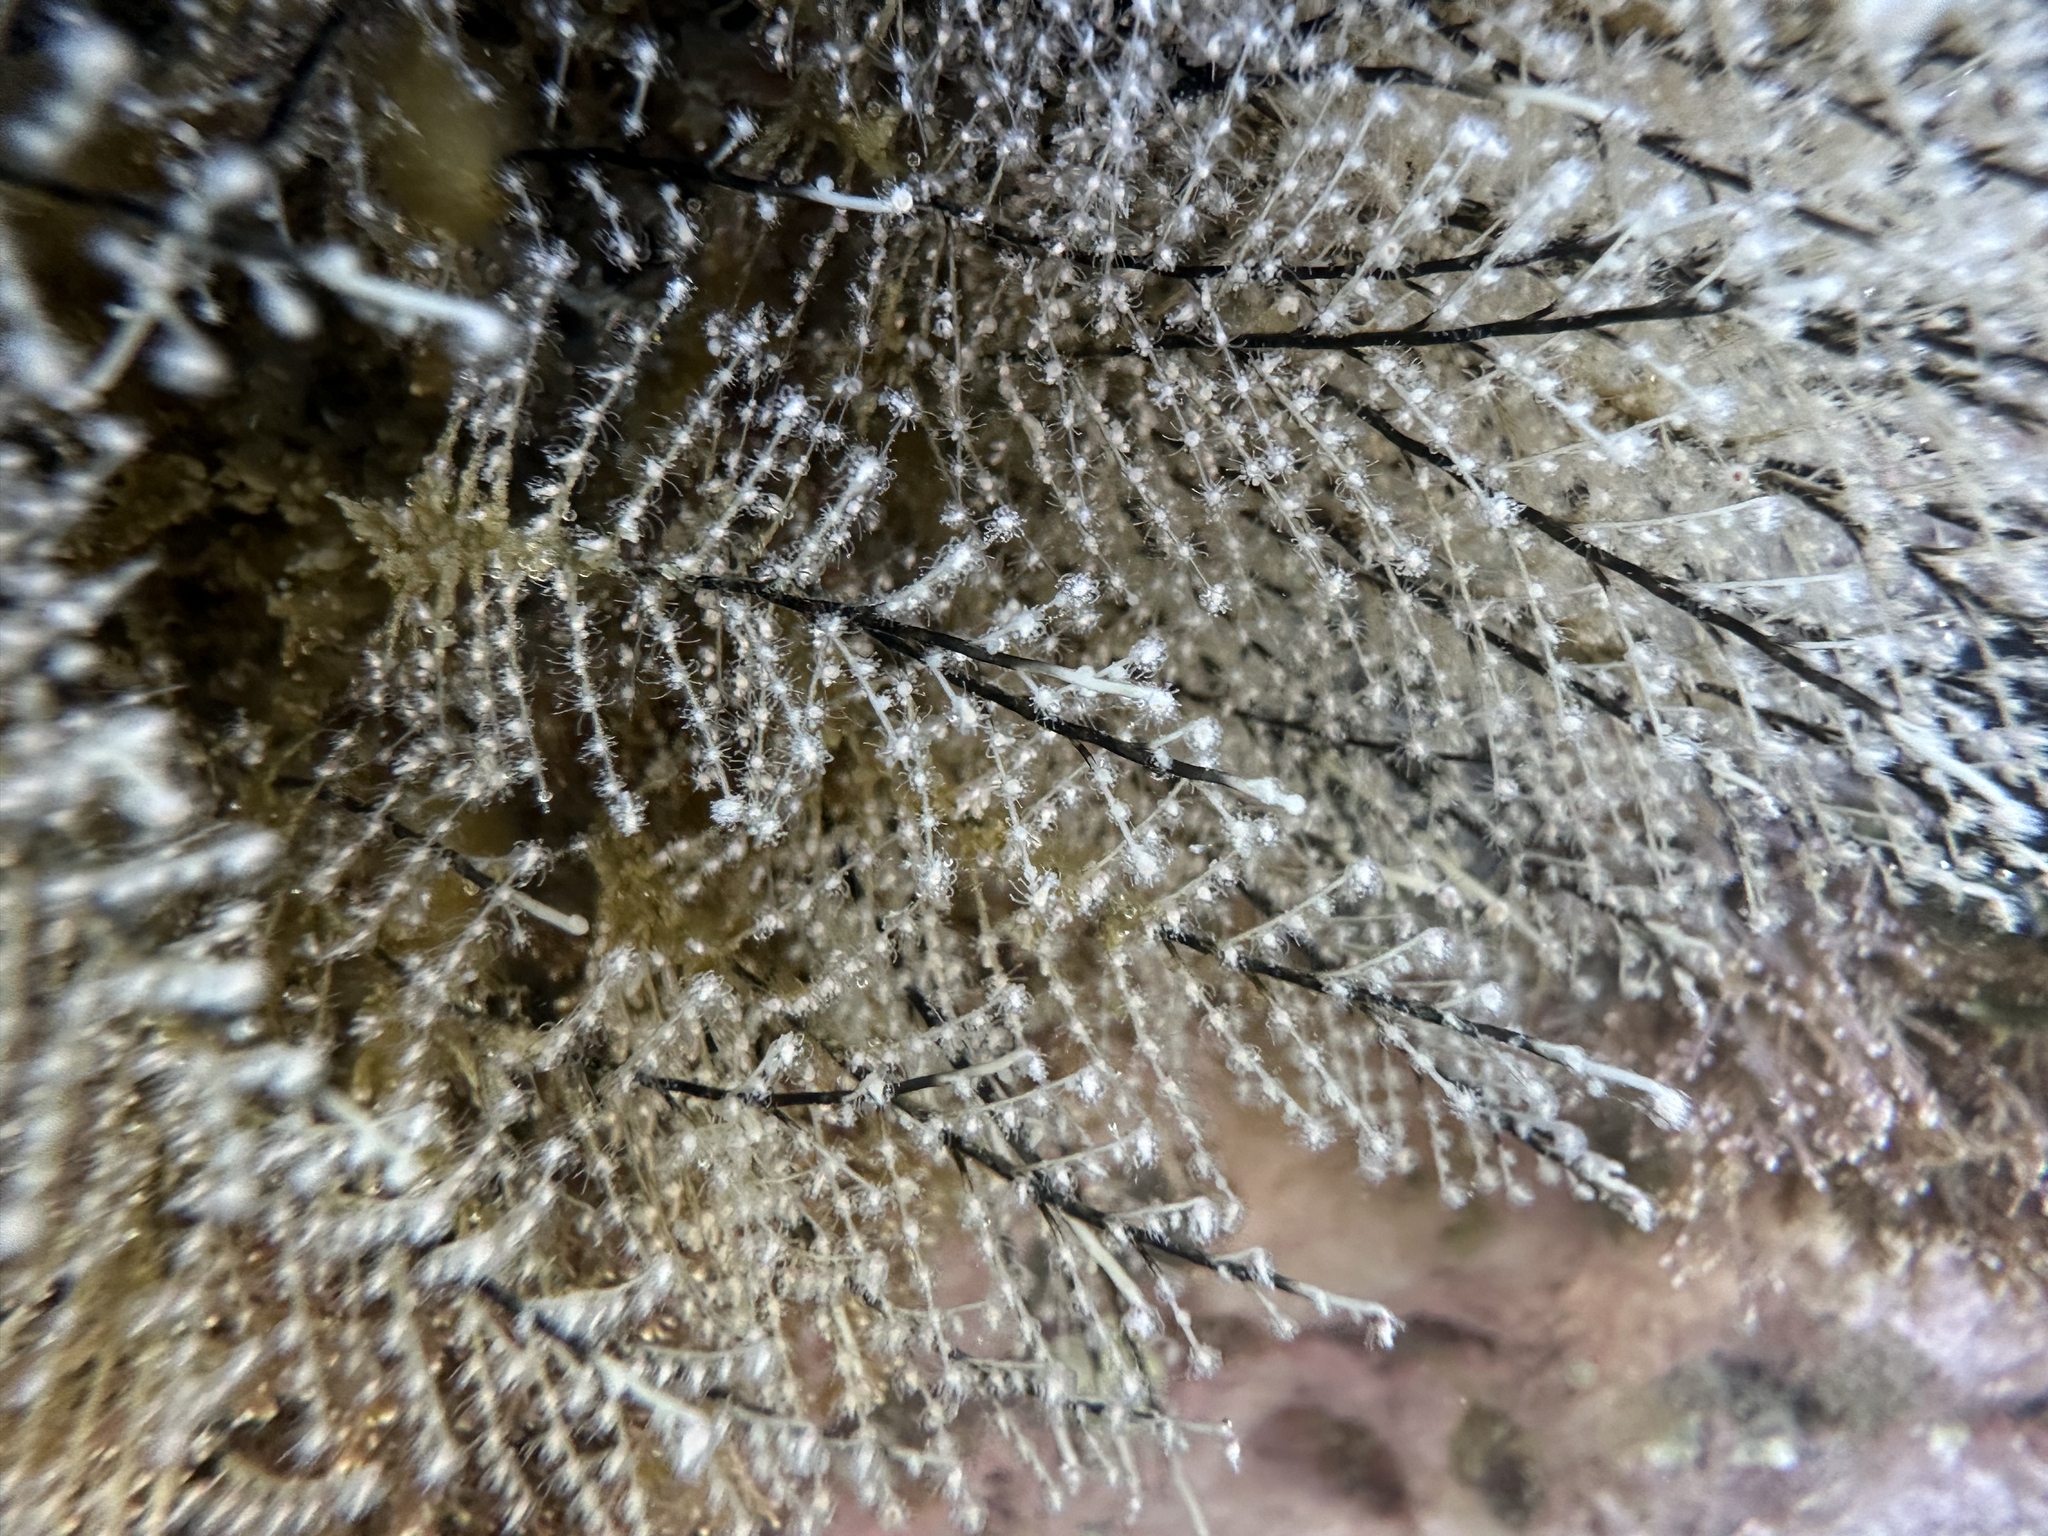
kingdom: Animalia
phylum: Cnidaria
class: Hydrozoa
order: Anthoathecata
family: Pennariidae
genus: Pennaria
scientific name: Pennaria disticha
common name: Feather hydroid
